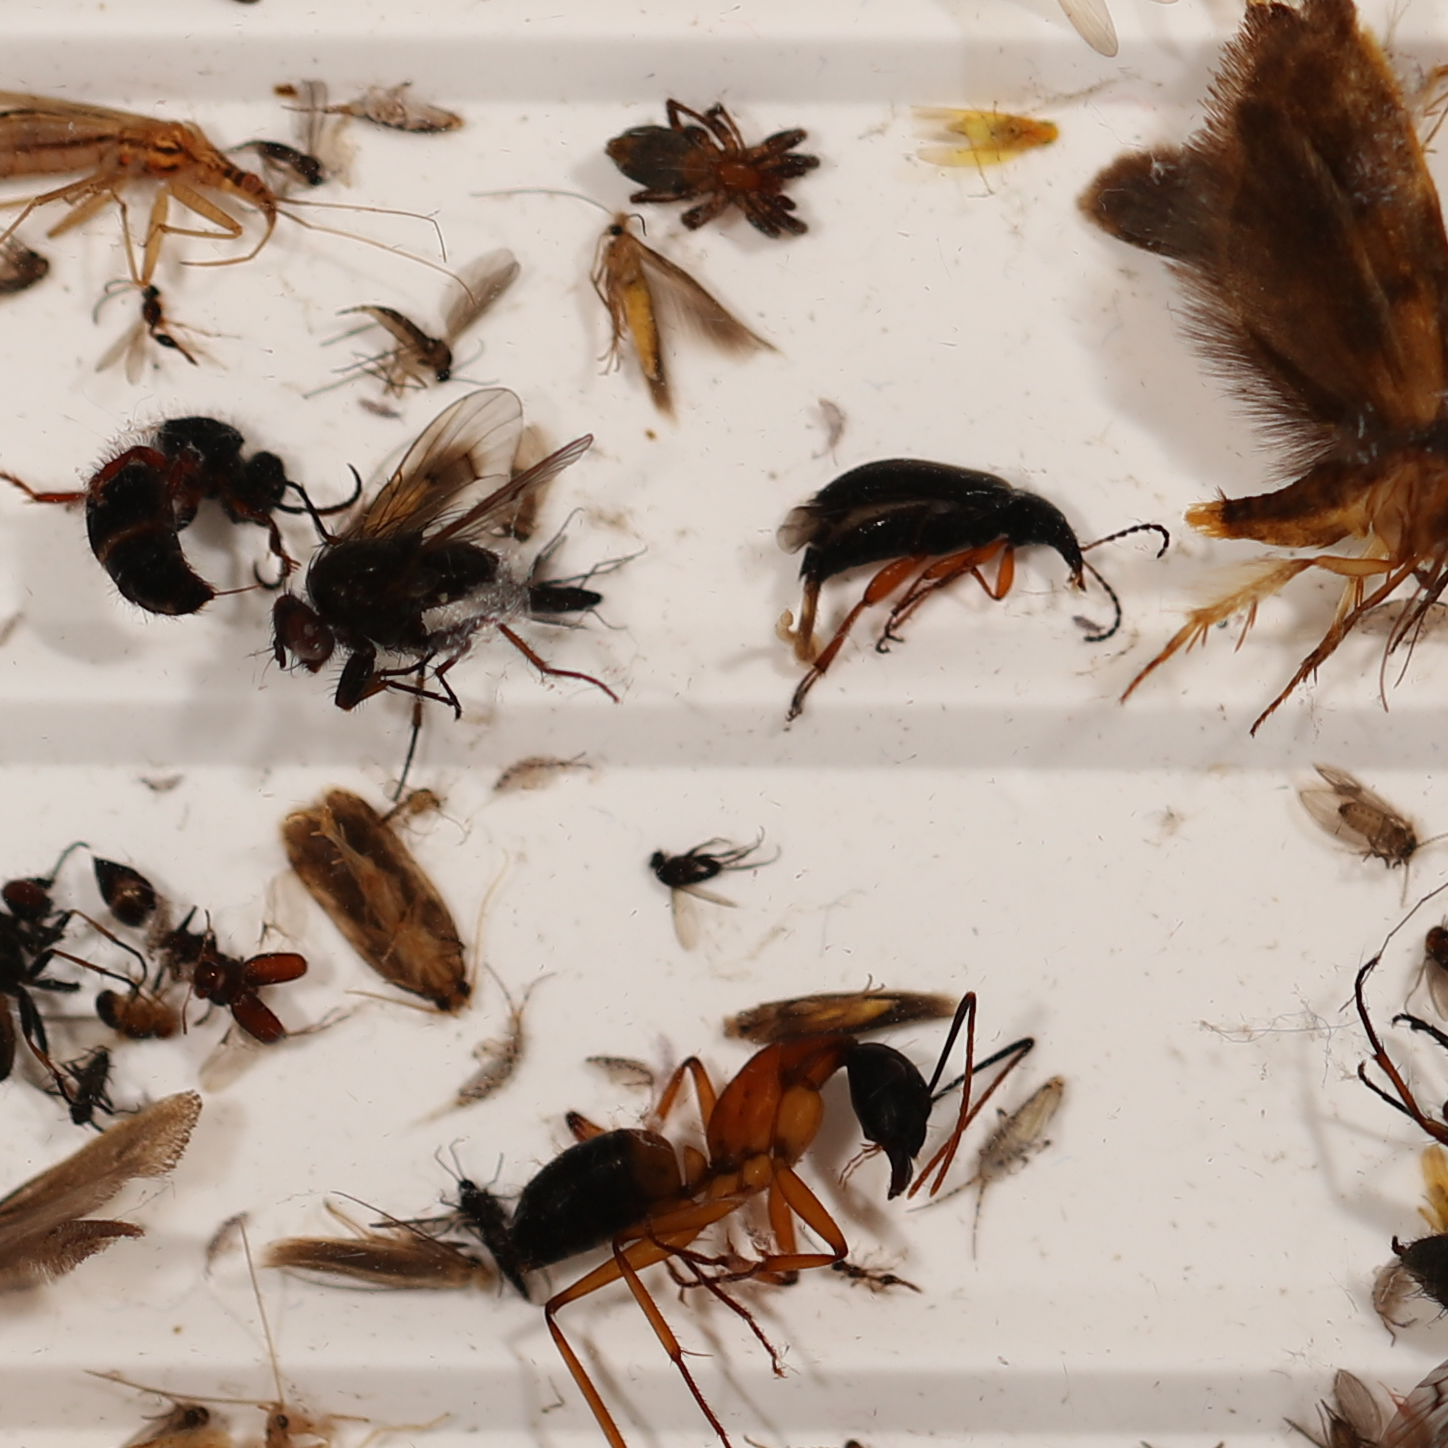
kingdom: Animalia
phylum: Arthropoda
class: Insecta
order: Hymenoptera
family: Formicidae
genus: Camponotus
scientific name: Camponotus consobrinus
